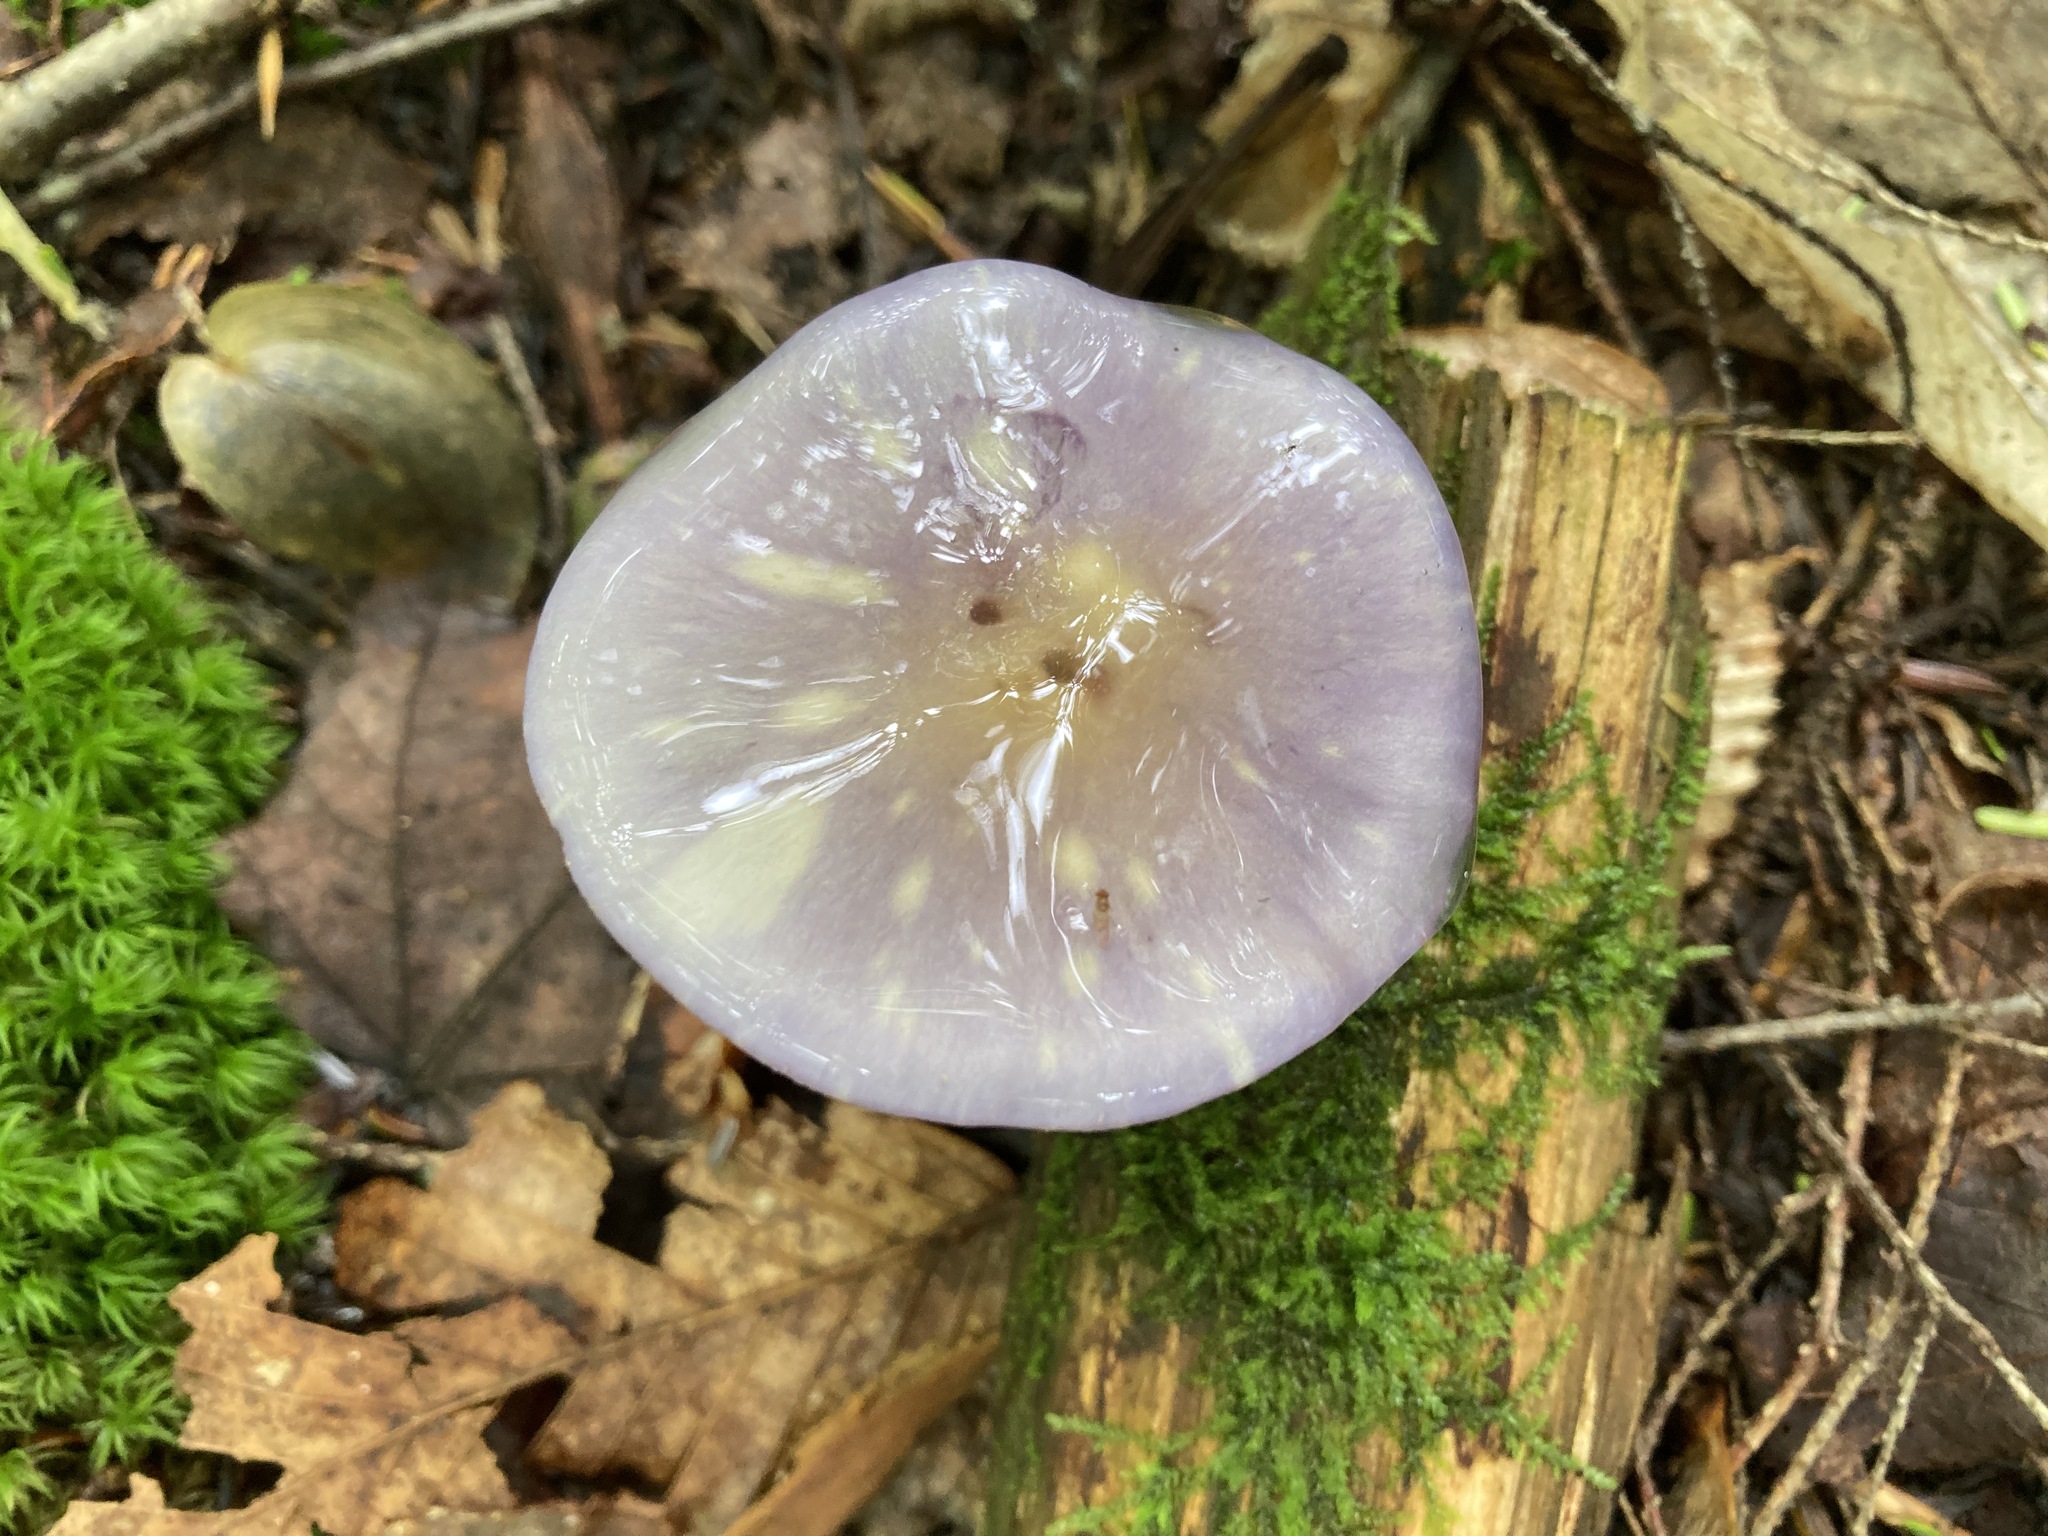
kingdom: Fungi
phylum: Basidiomycota
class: Agaricomycetes
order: Agaricales
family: Cortinariaceae
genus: Cortinarius
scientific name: Cortinarius iodes
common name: Viscid violet cort
